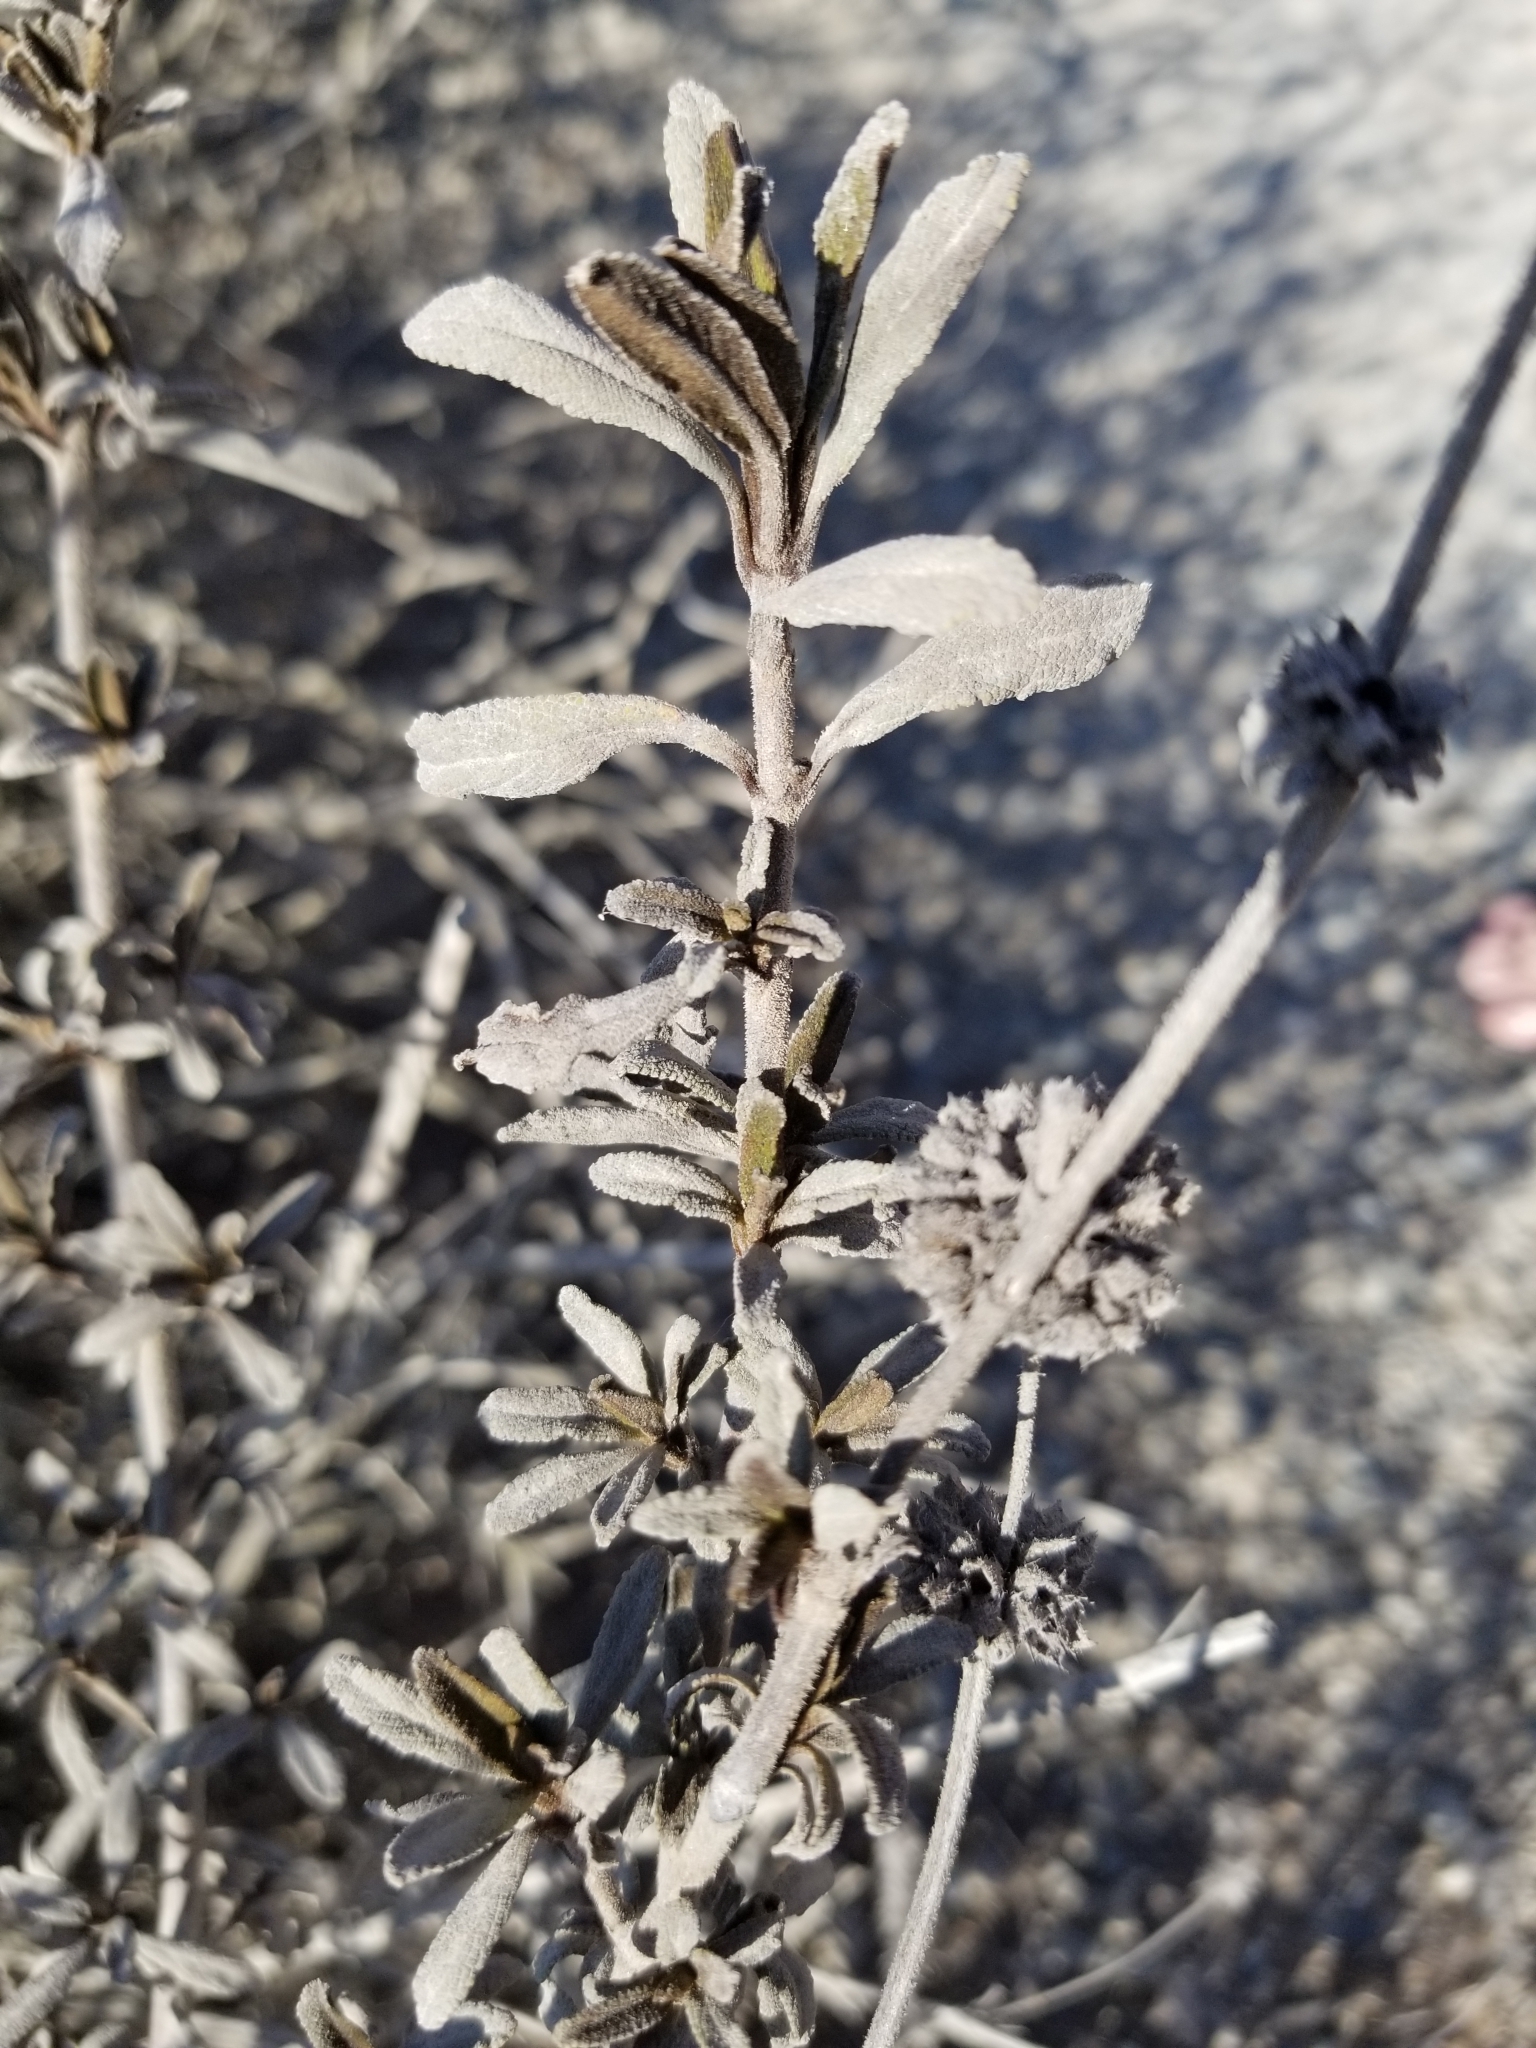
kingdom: Plantae
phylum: Tracheophyta
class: Magnoliopsida
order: Lamiales
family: Lamiaceae
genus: Salvia
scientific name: Salvia mellifera
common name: Black sage
